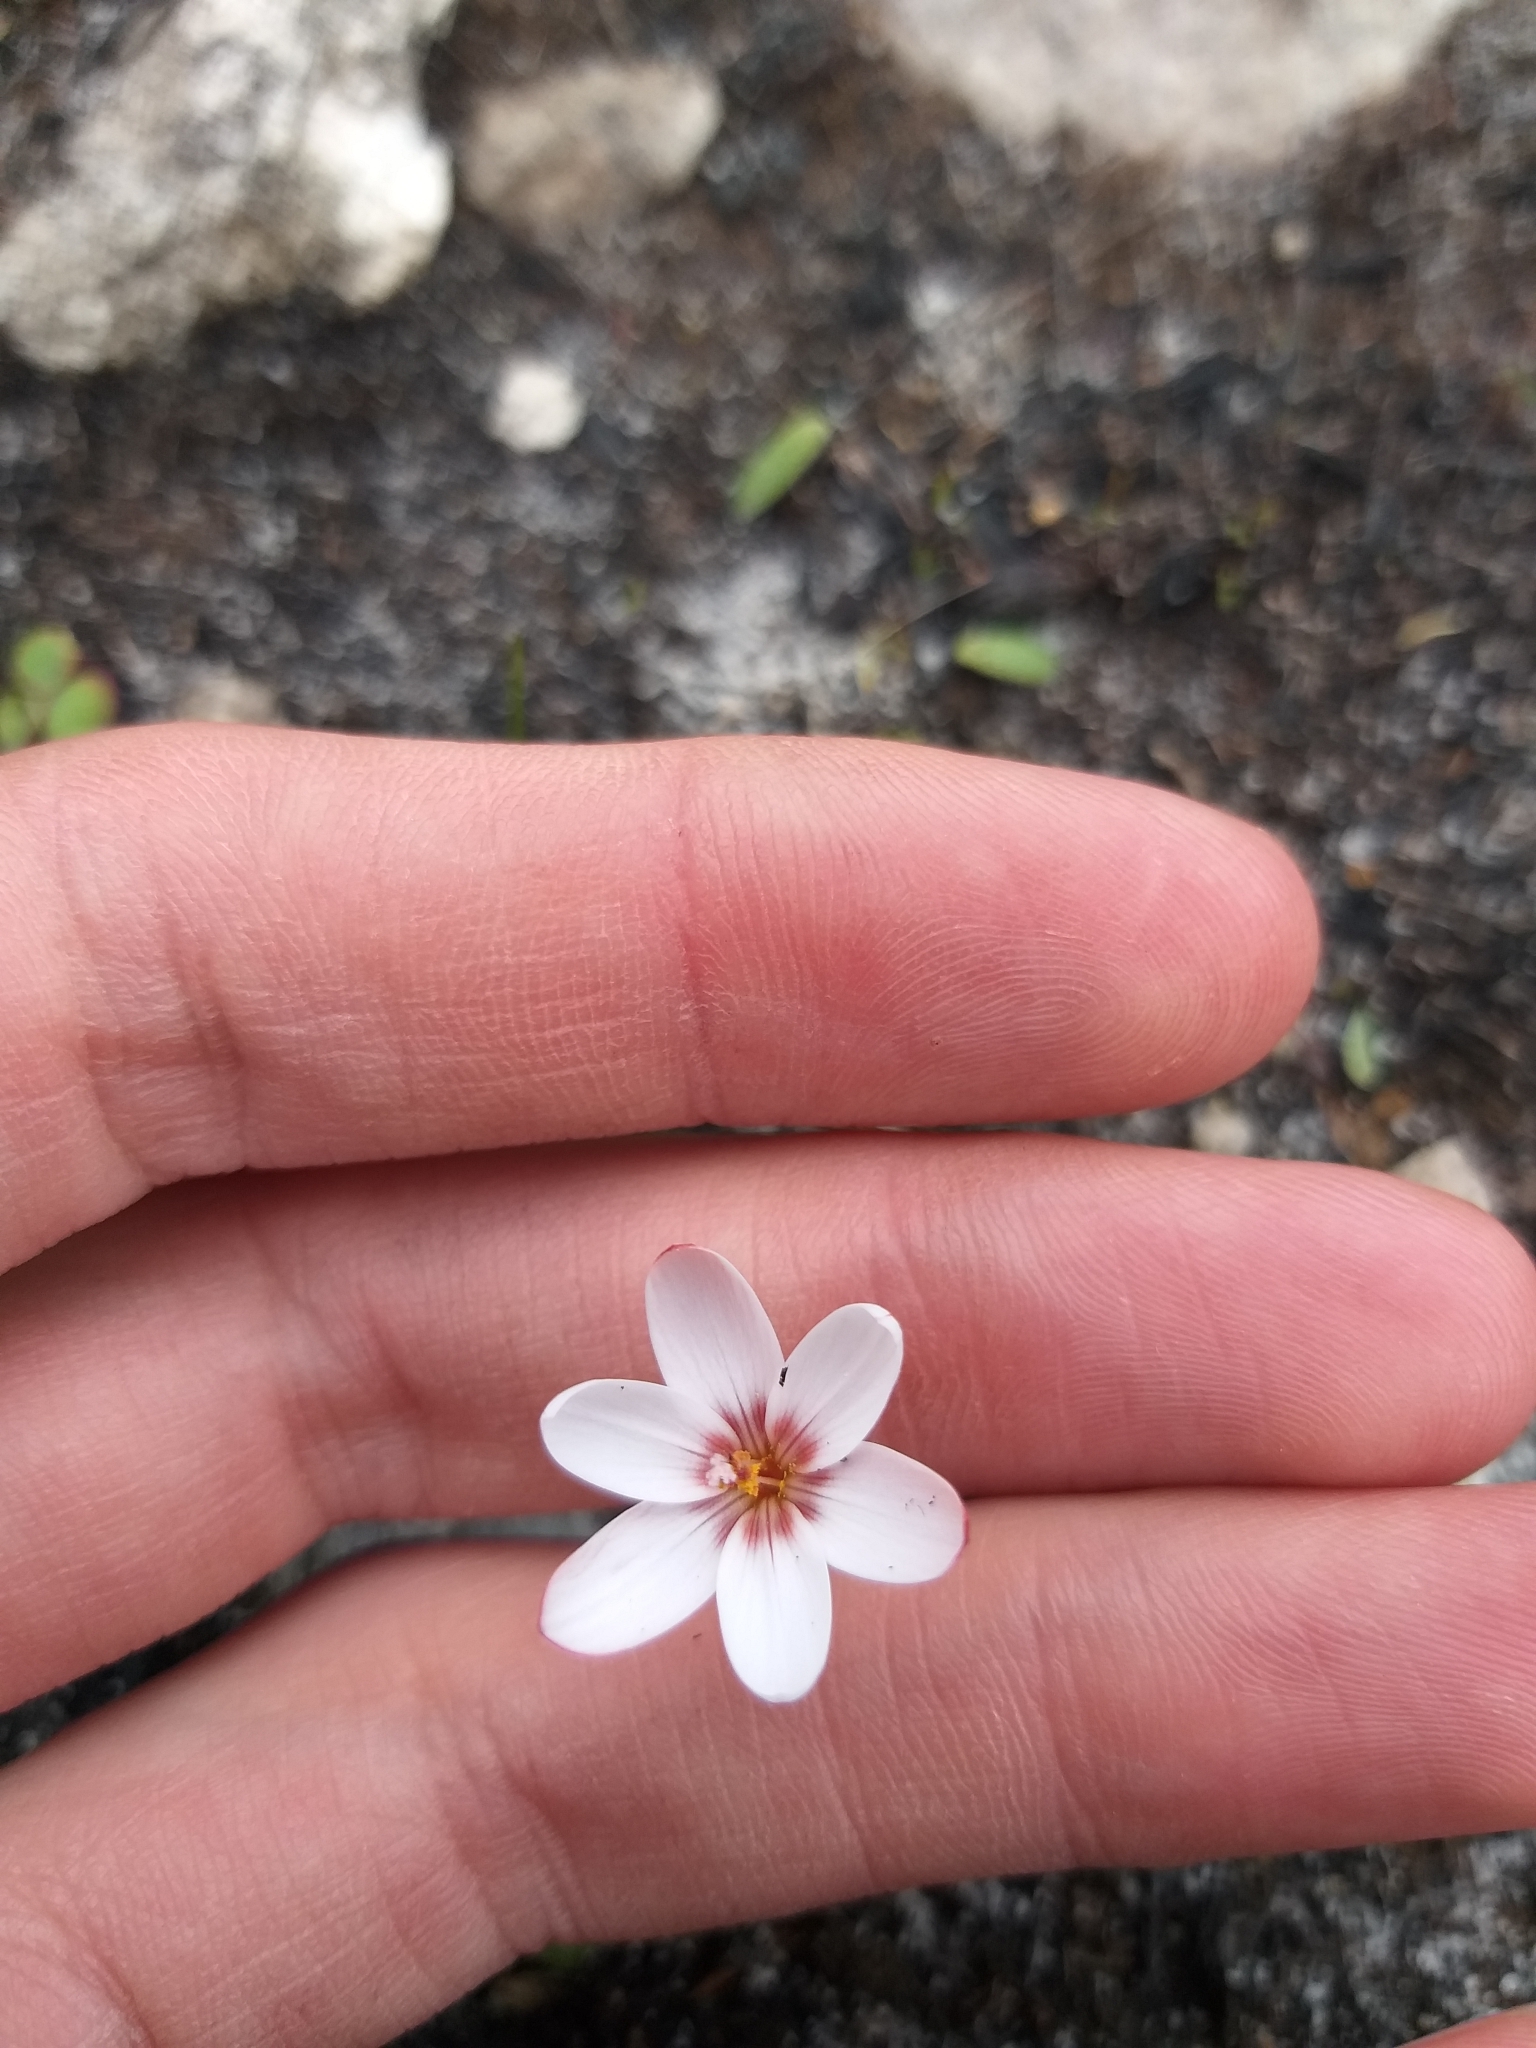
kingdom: Plantae
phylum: Tracheophyta
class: Liliopsida
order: Asparagales
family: Iridaceae
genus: Geissorhiza
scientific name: Geissorhiza ovata
